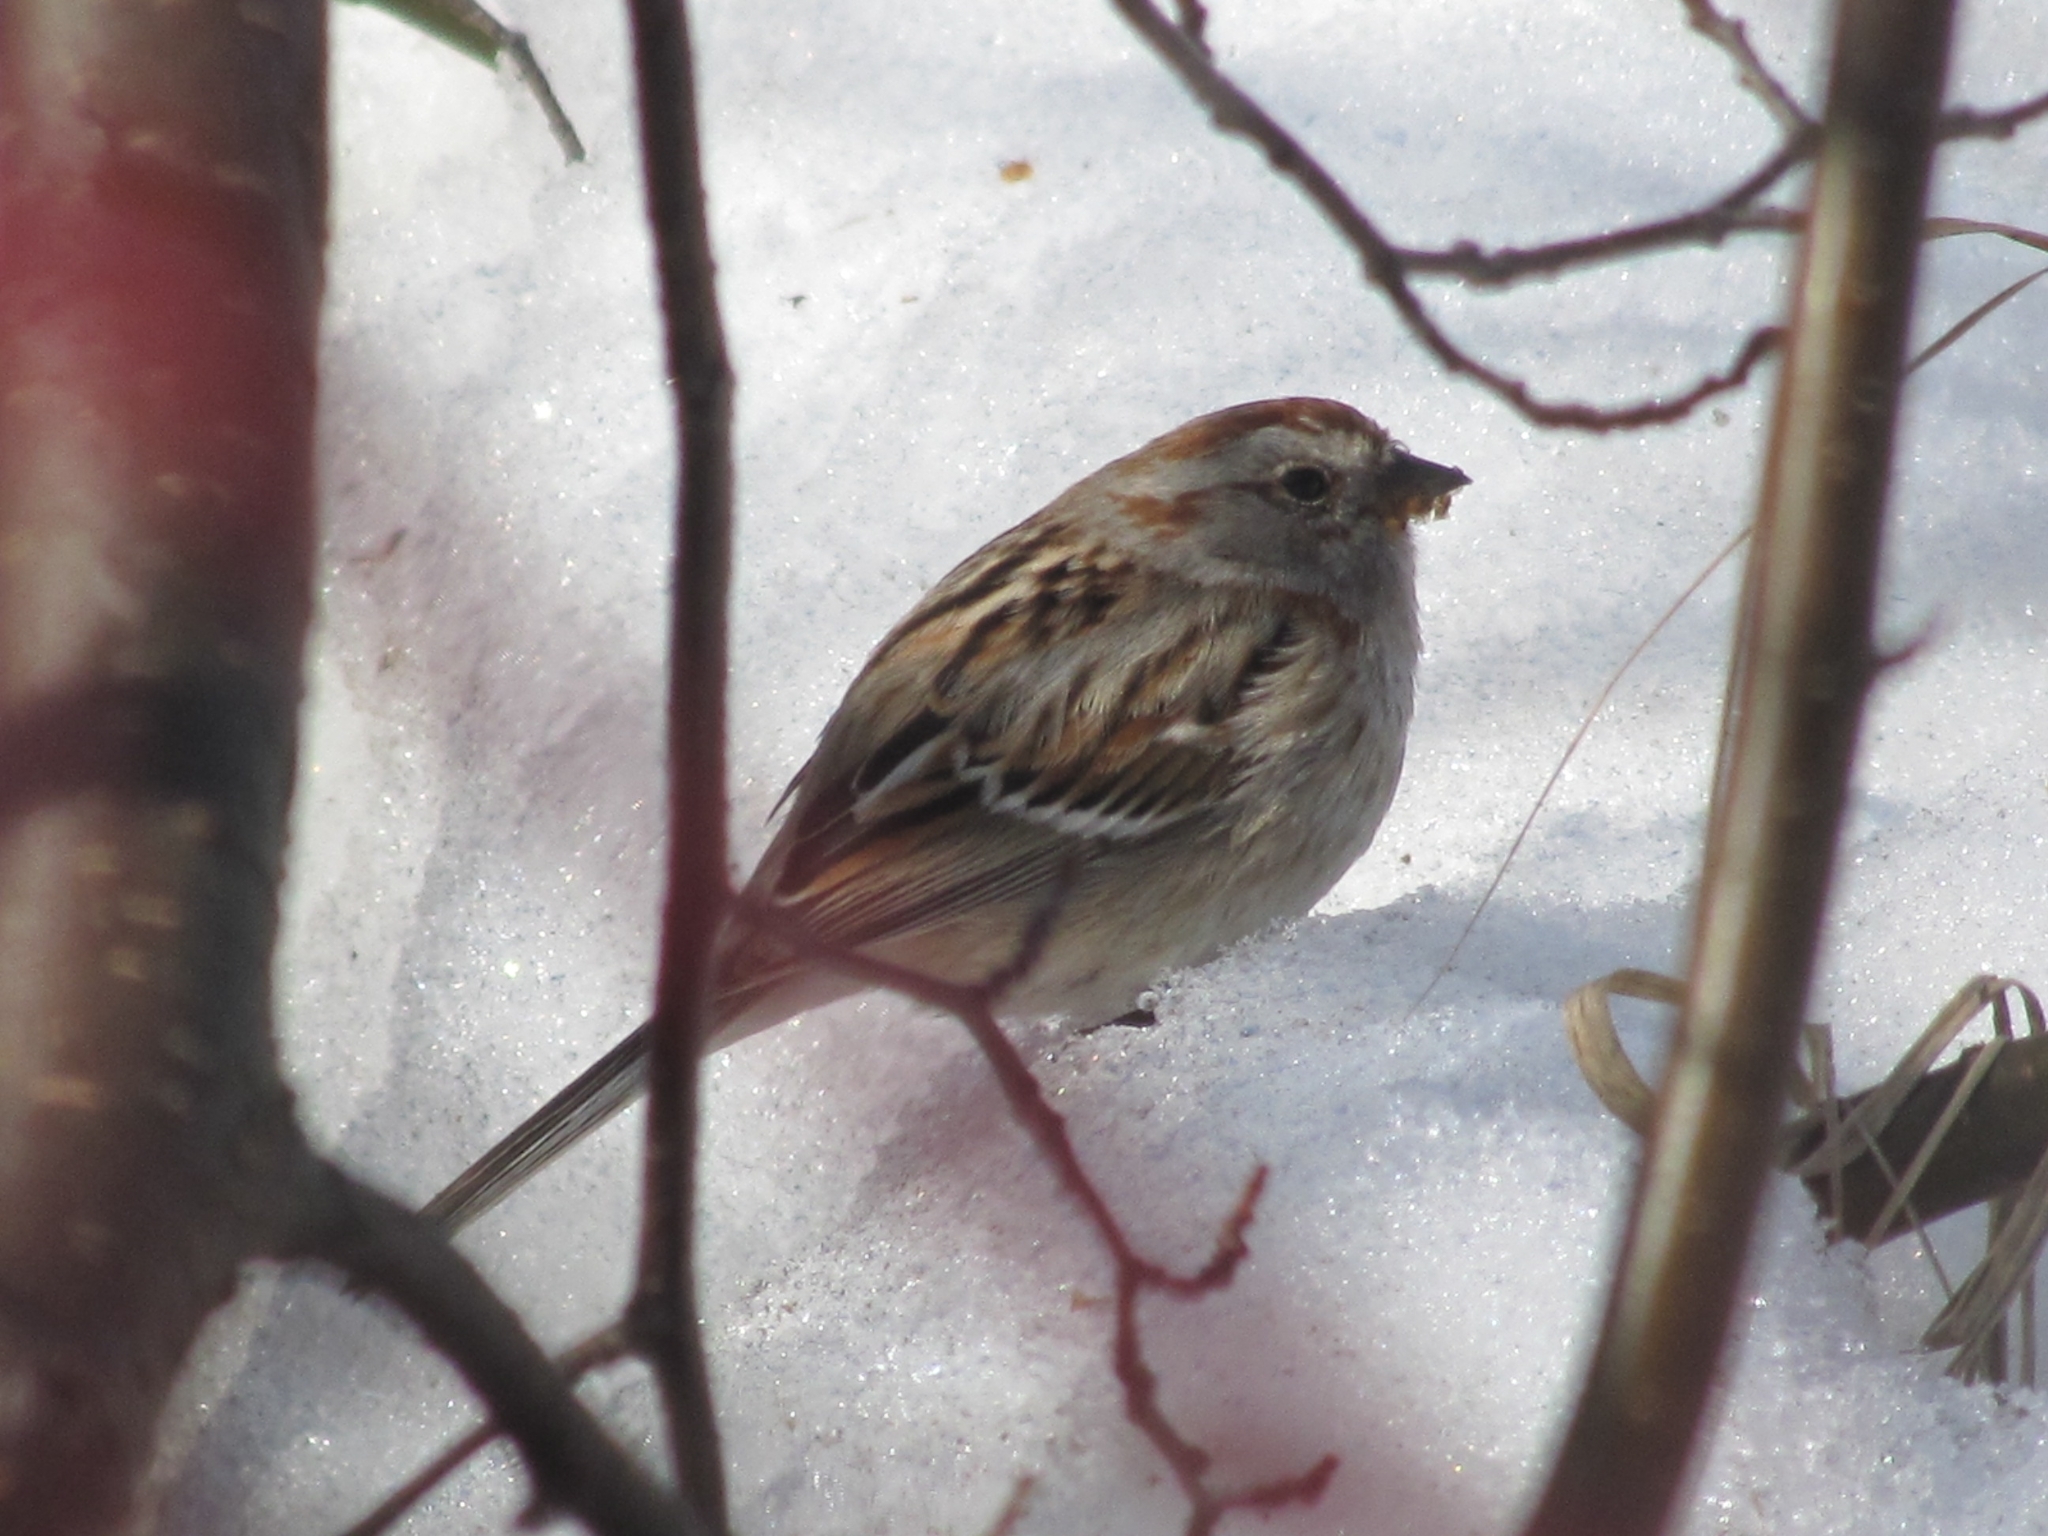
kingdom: Animalia
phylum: Chordata
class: Aves
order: Passeriformes
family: Passerellidae
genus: Spizelloides
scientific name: Spizelloides arborea
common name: American tree sparrow
